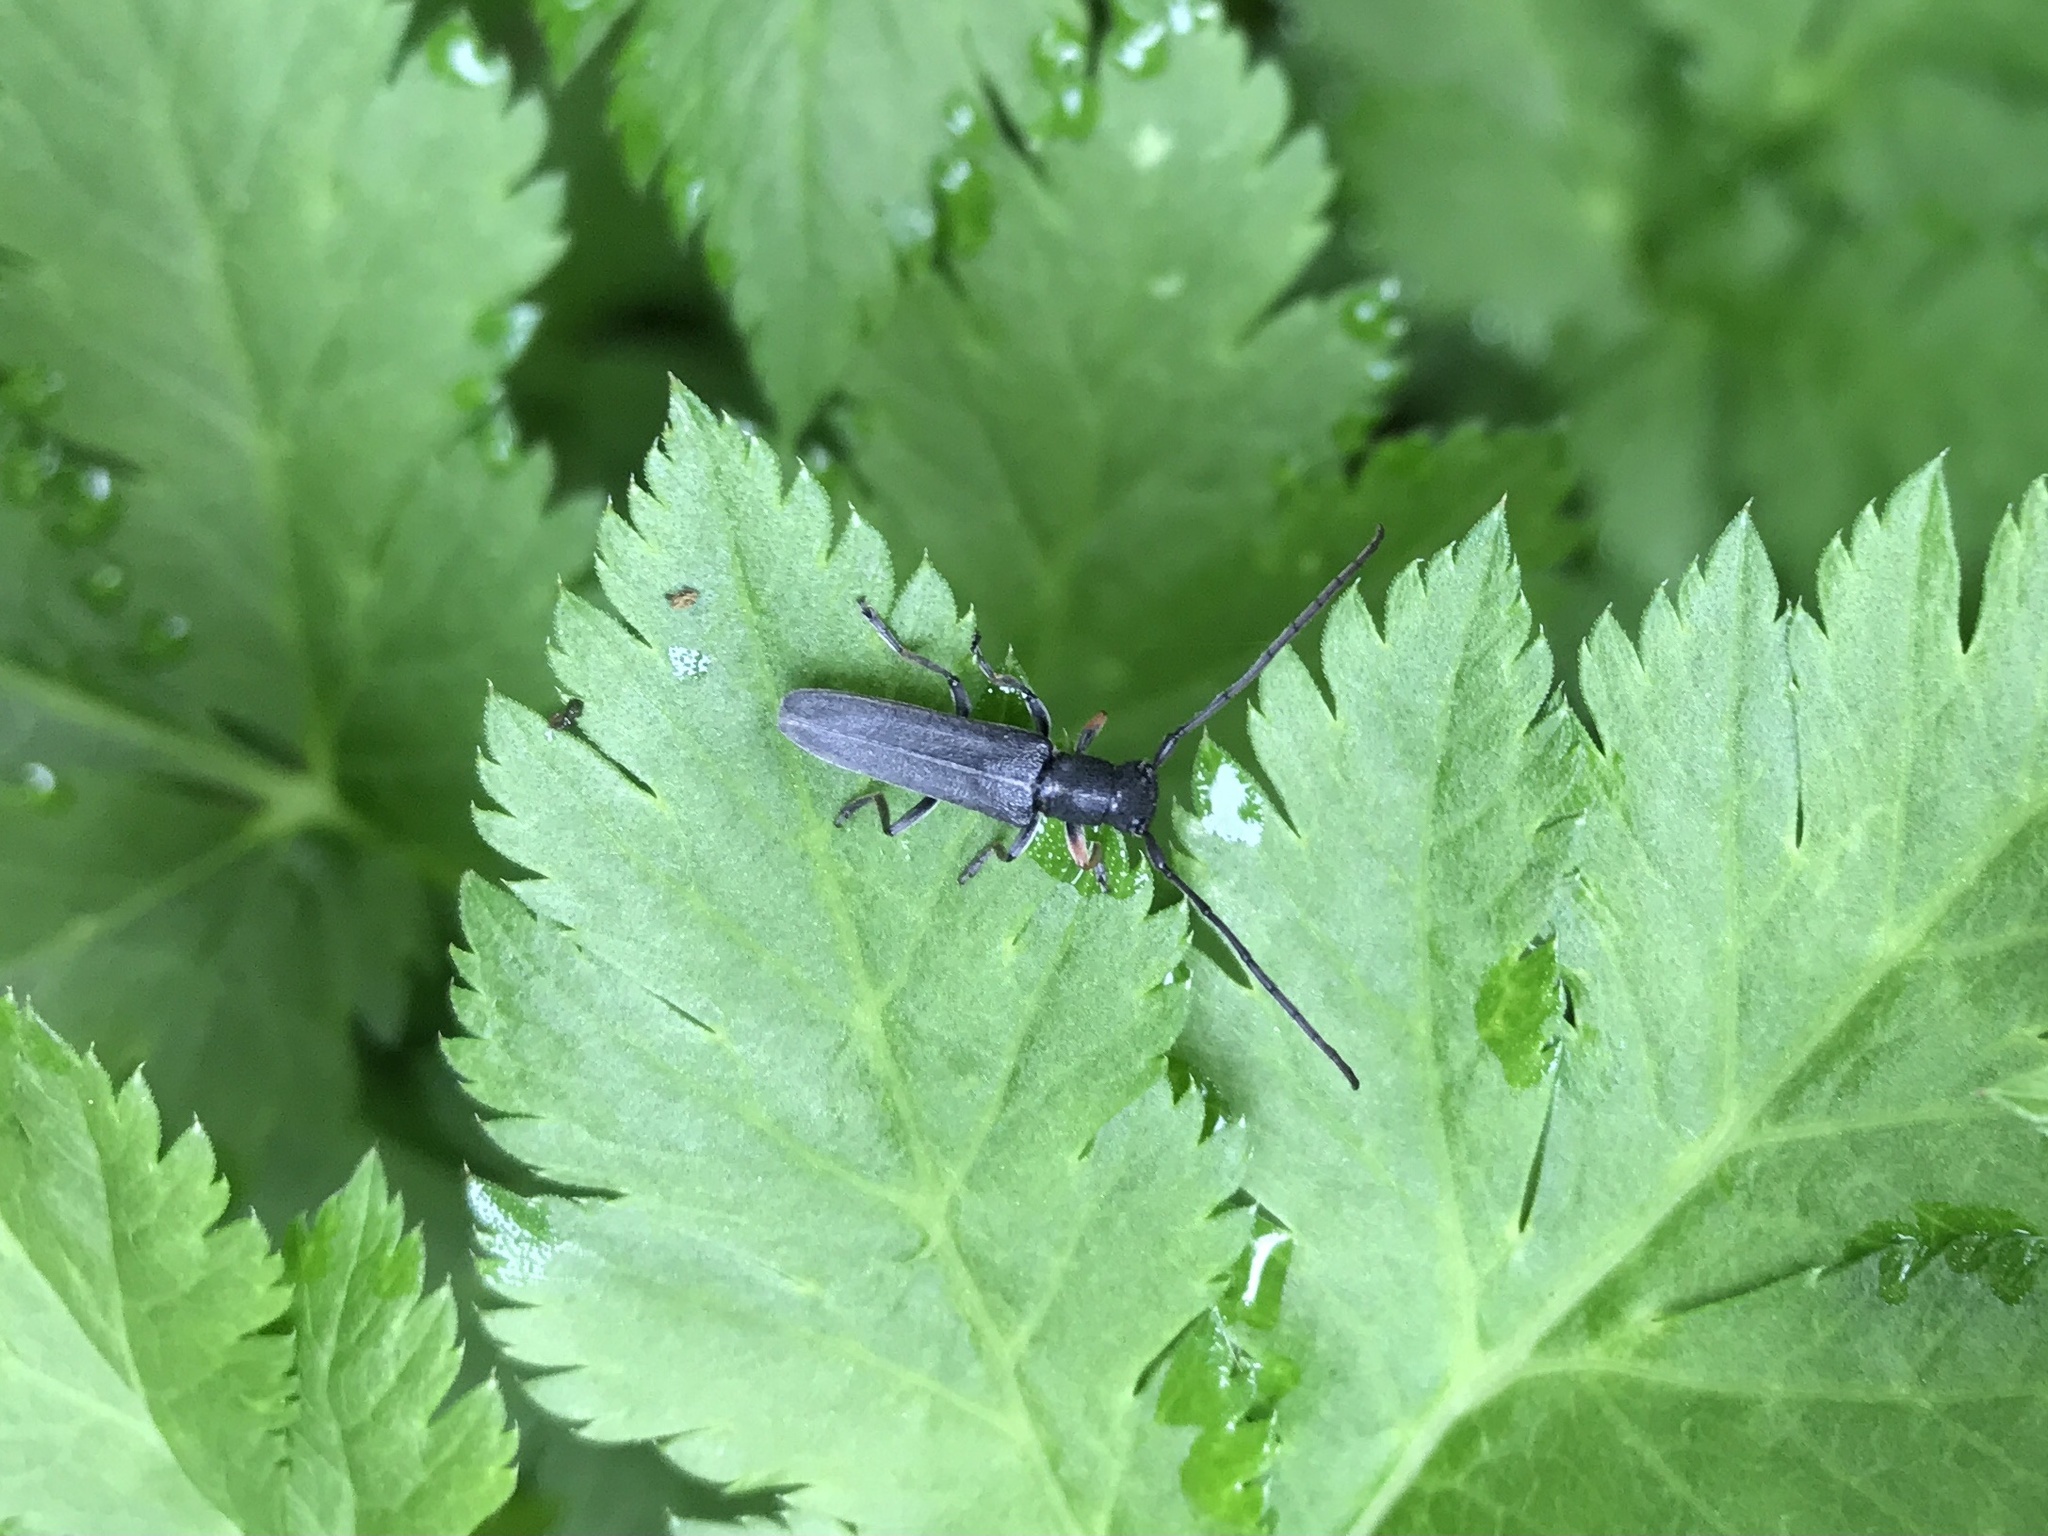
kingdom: Animalia
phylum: Arthropoda
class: Insecta
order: Coleoptera
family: Cerambycidae
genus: Phytoecia
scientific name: Phytoecia cylindrica
